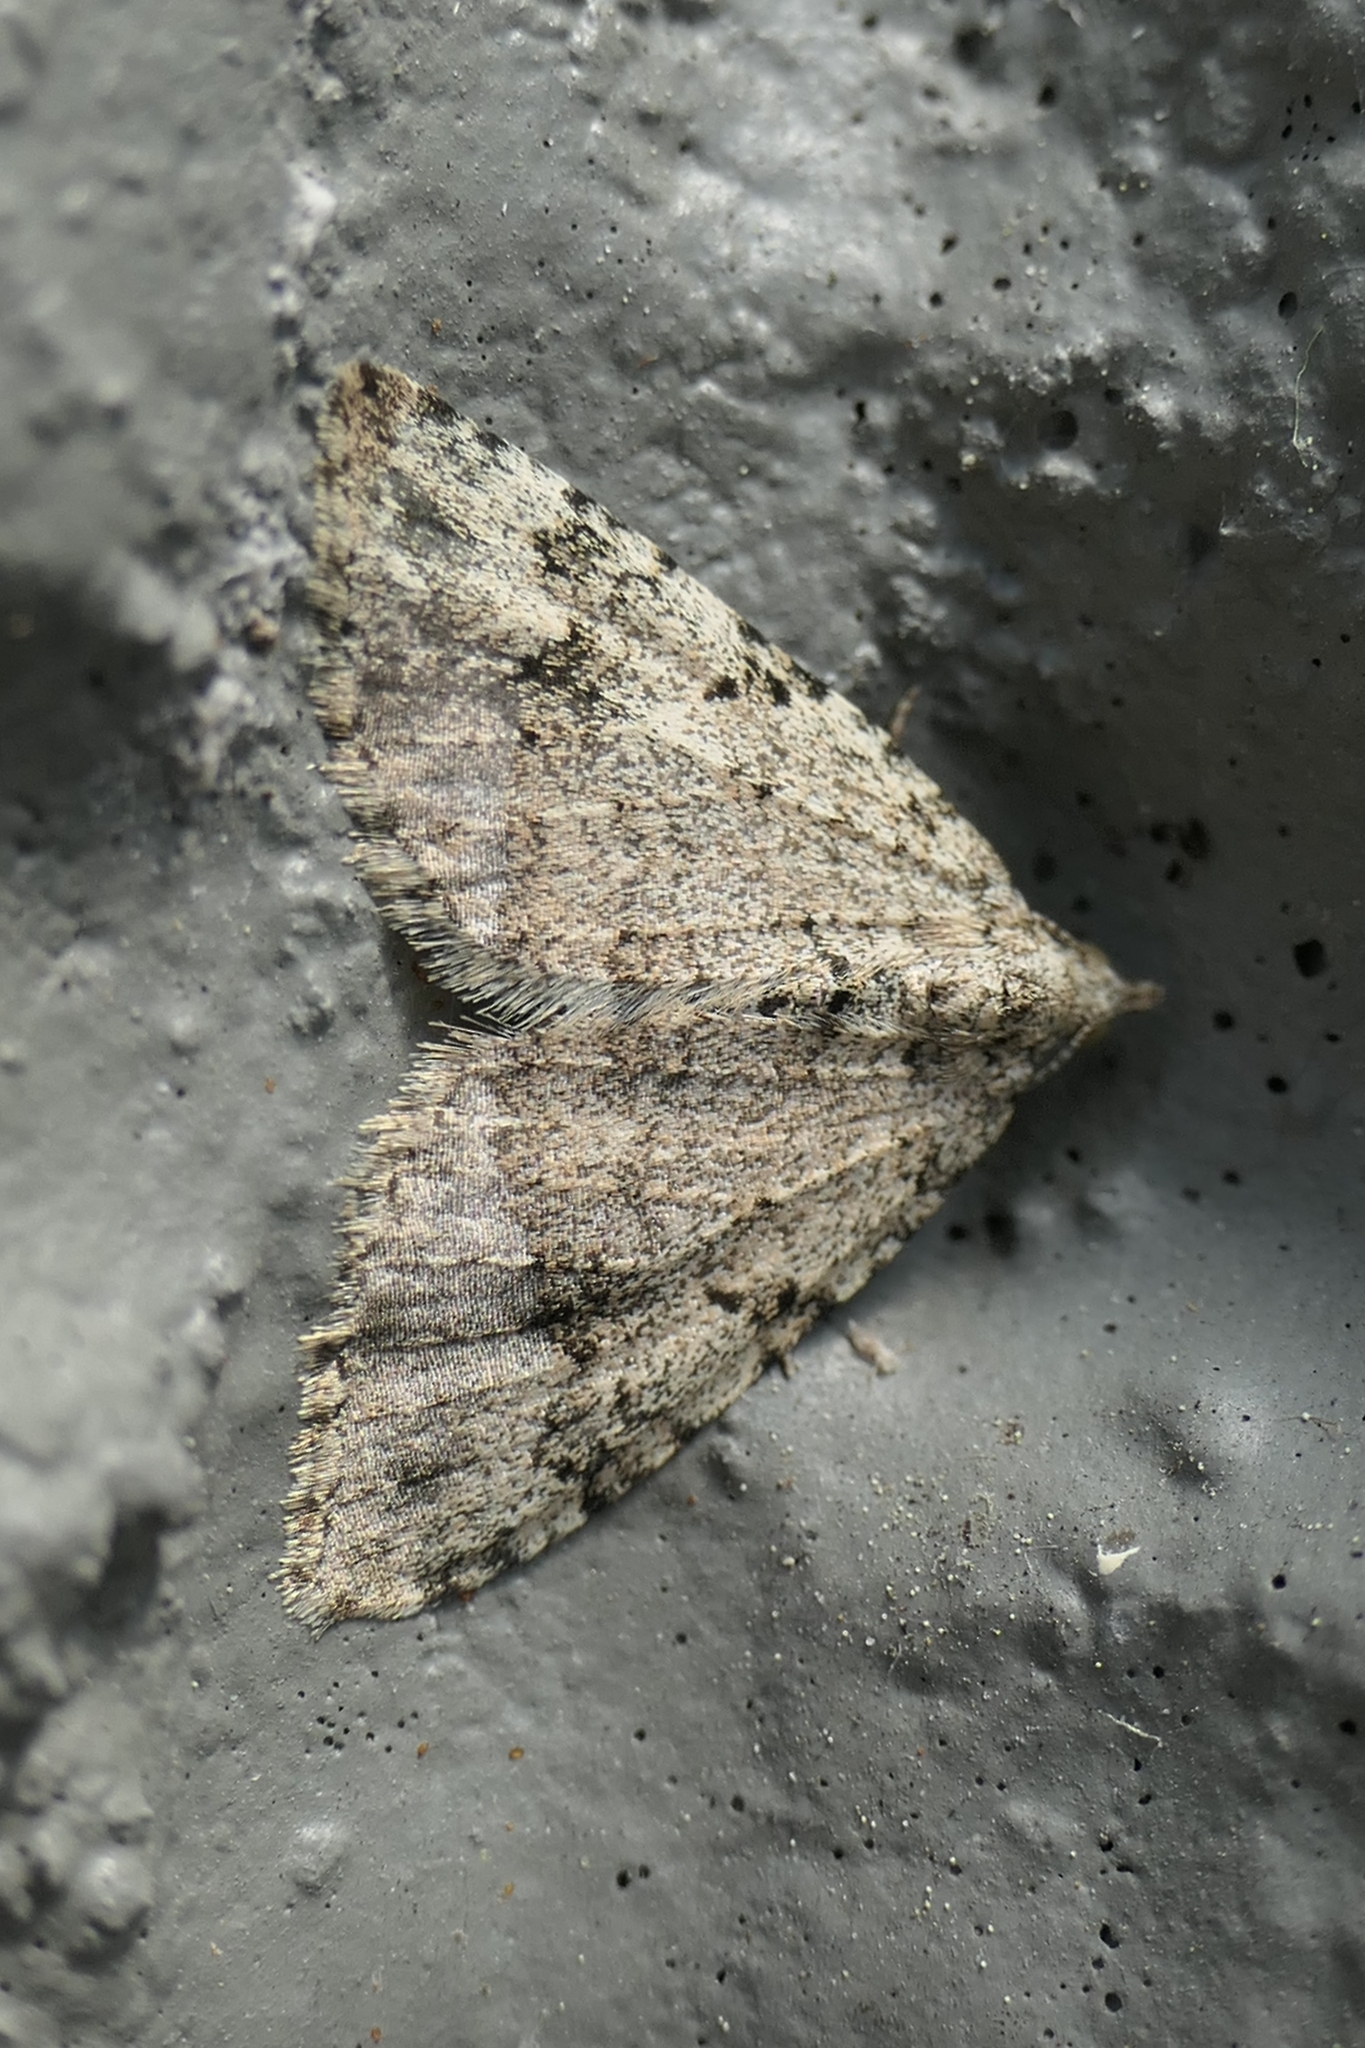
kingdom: Animalia
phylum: Arthropoda
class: Insecta
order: Lepidoptera
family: Geometridae
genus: Helastia
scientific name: Helastia cinerearia
